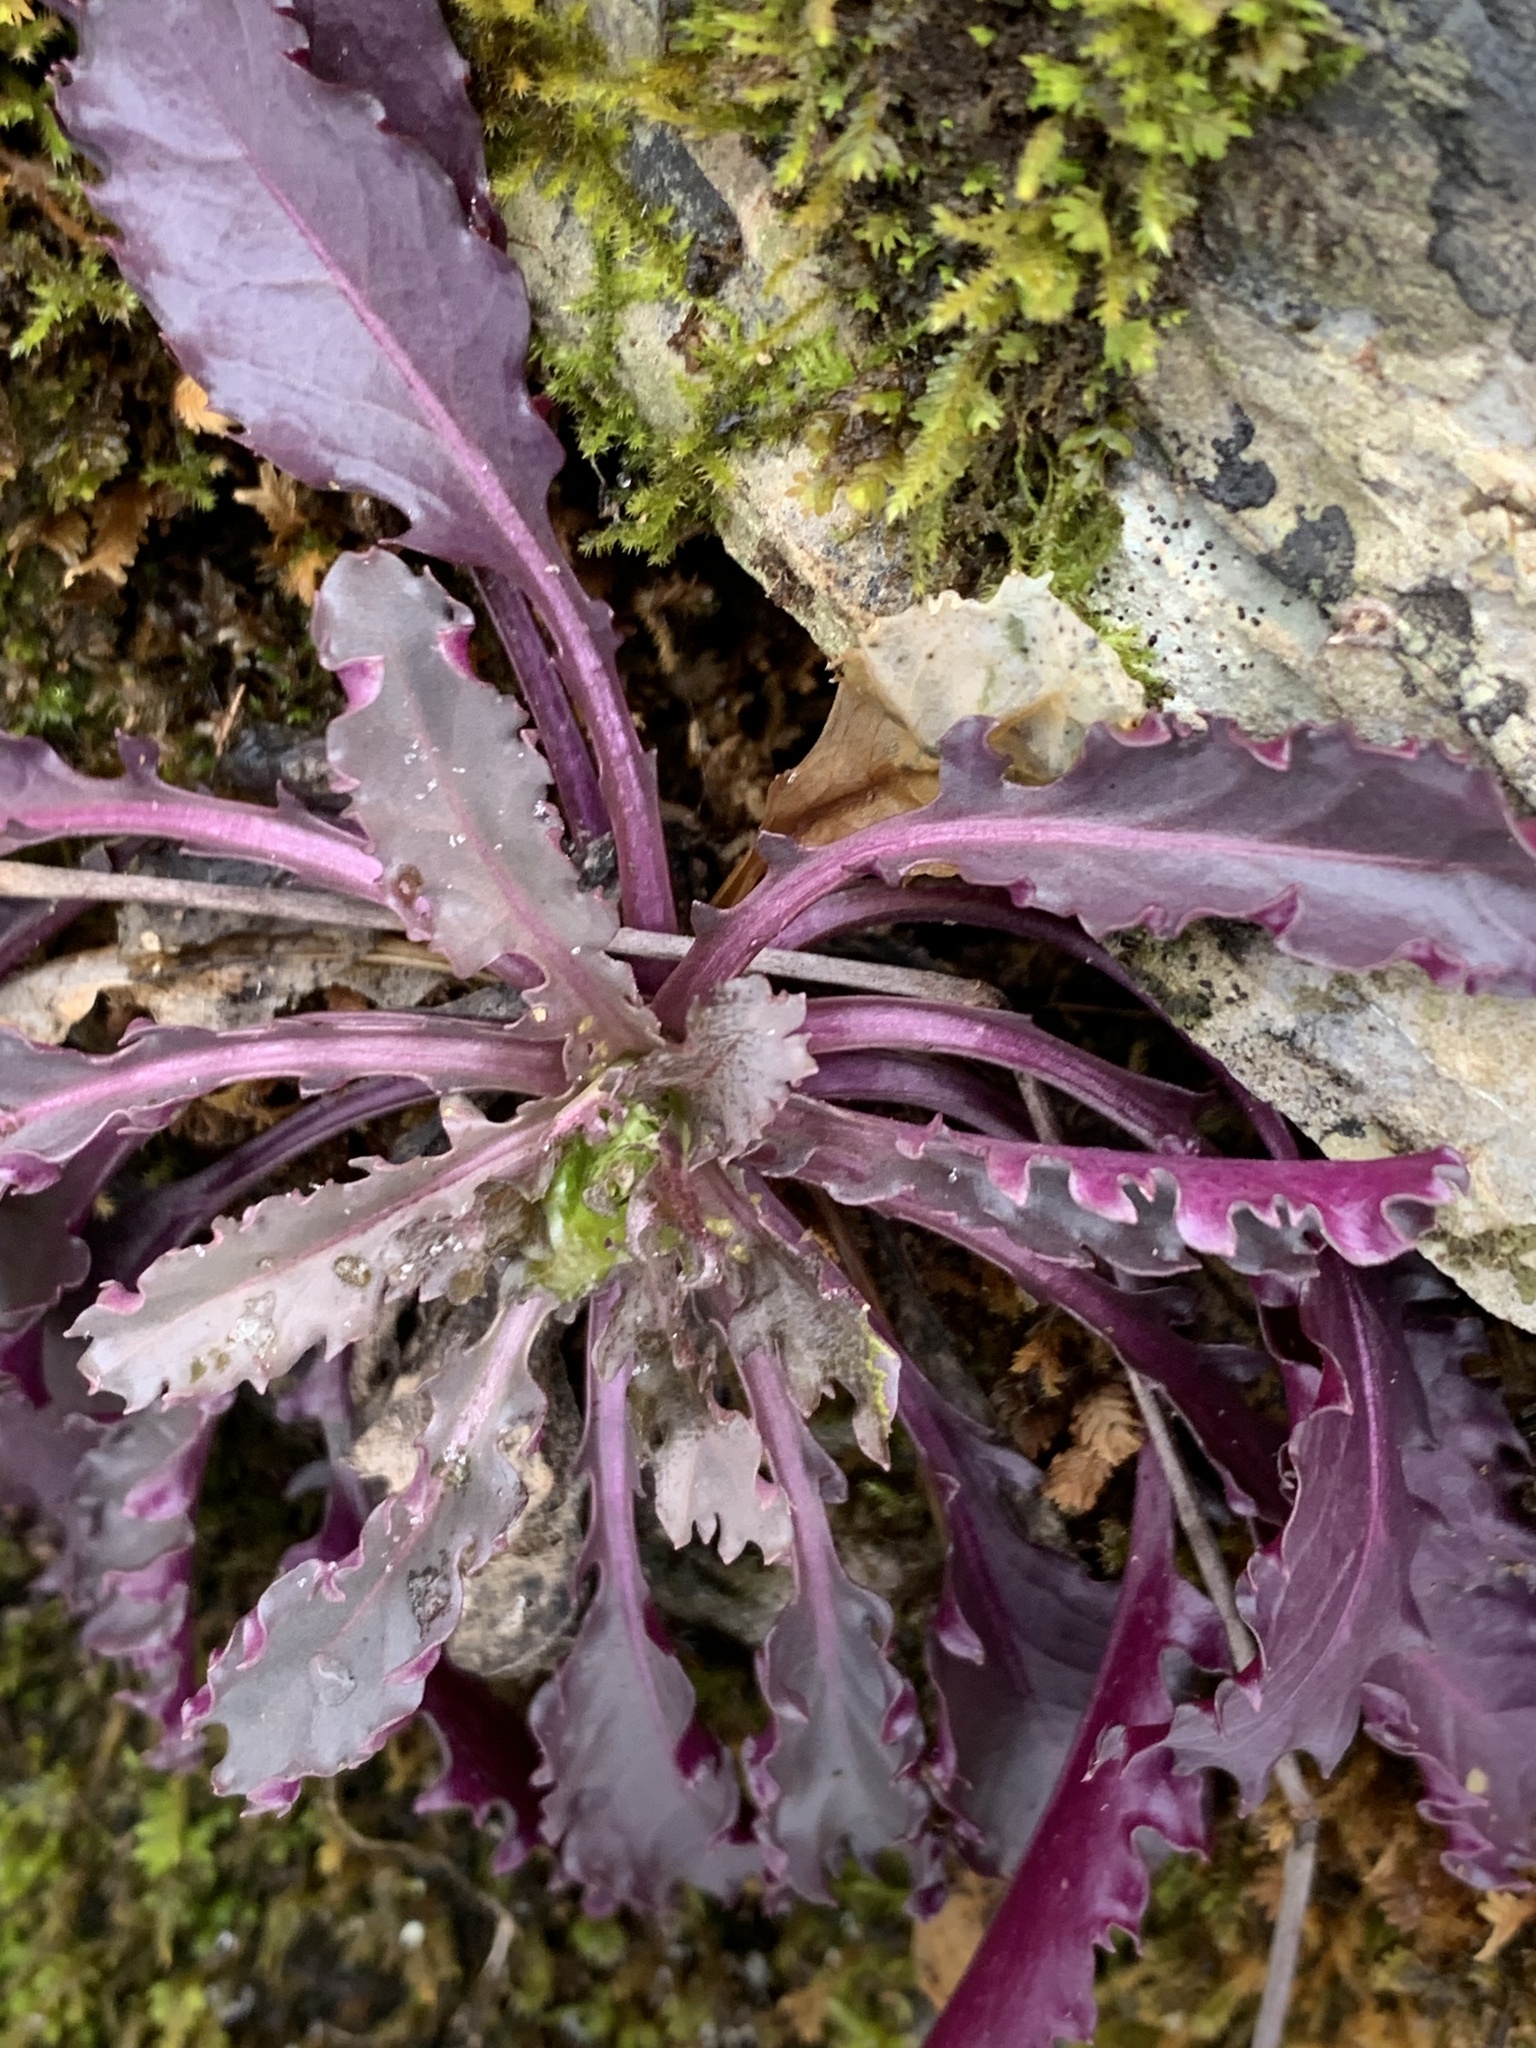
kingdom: Plantae
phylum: Tracheophyta
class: Magnoliopsida
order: Brassicales
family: Brassicaceae
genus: Borodinia
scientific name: Borodinia laevigata
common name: Smooth rockcress
